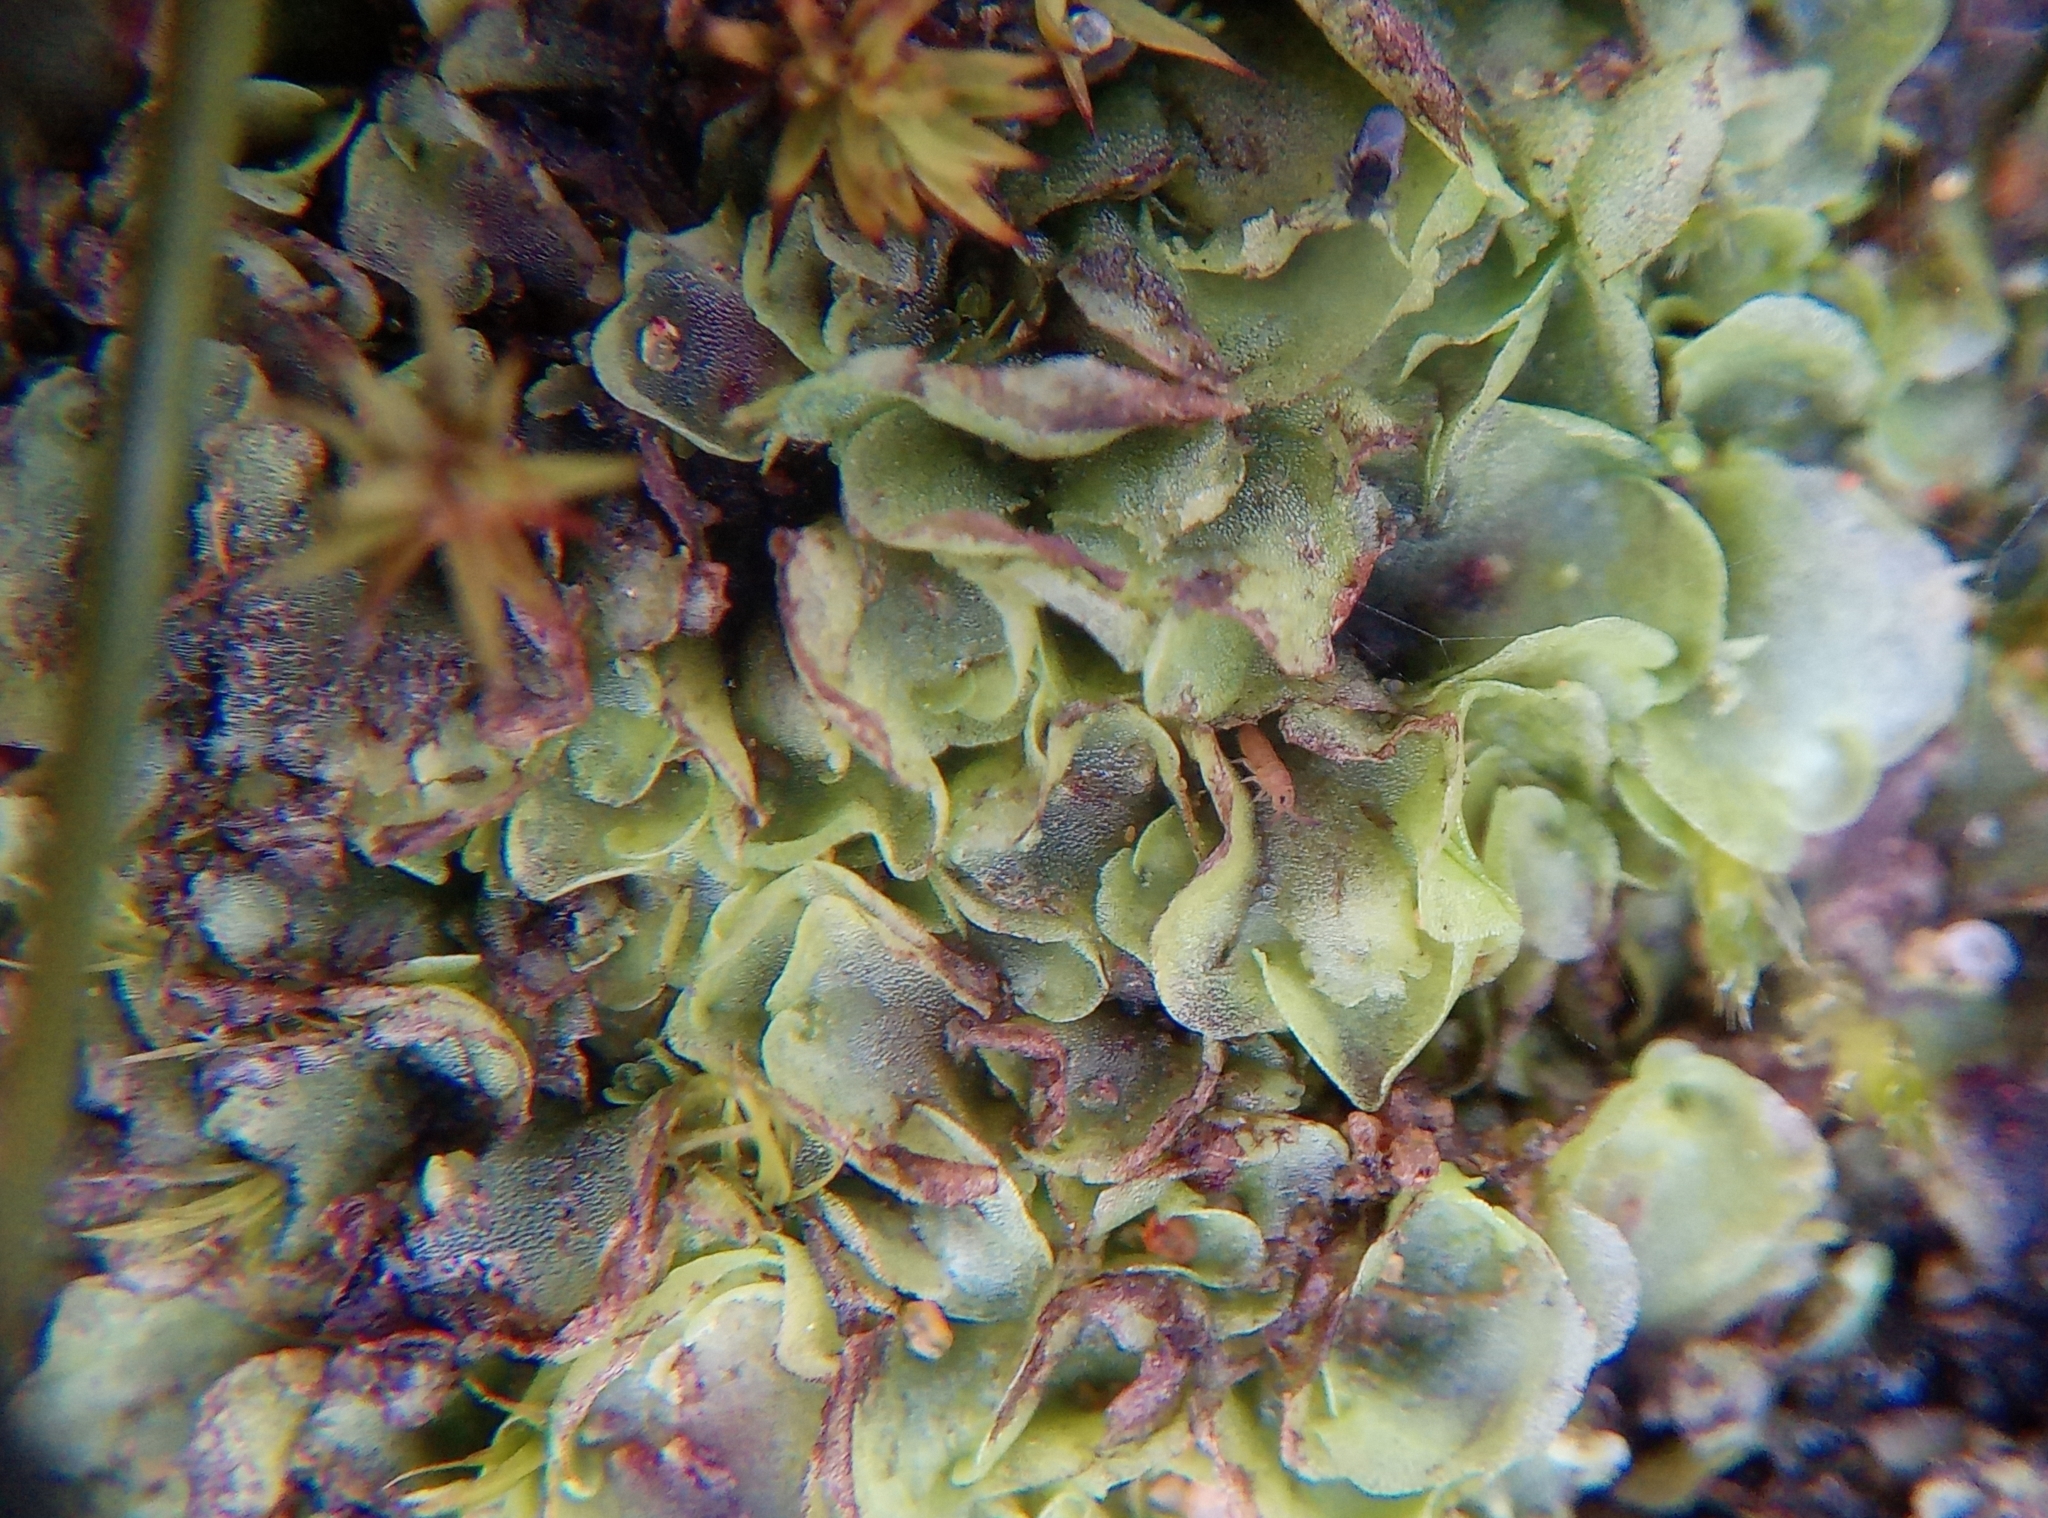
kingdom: Plantae
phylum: Marchantiophyta
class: Jungermanniopsida
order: Pelliales
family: Pelliaceae
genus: Pellia
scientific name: Pellia epiphylla
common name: Common pellia
